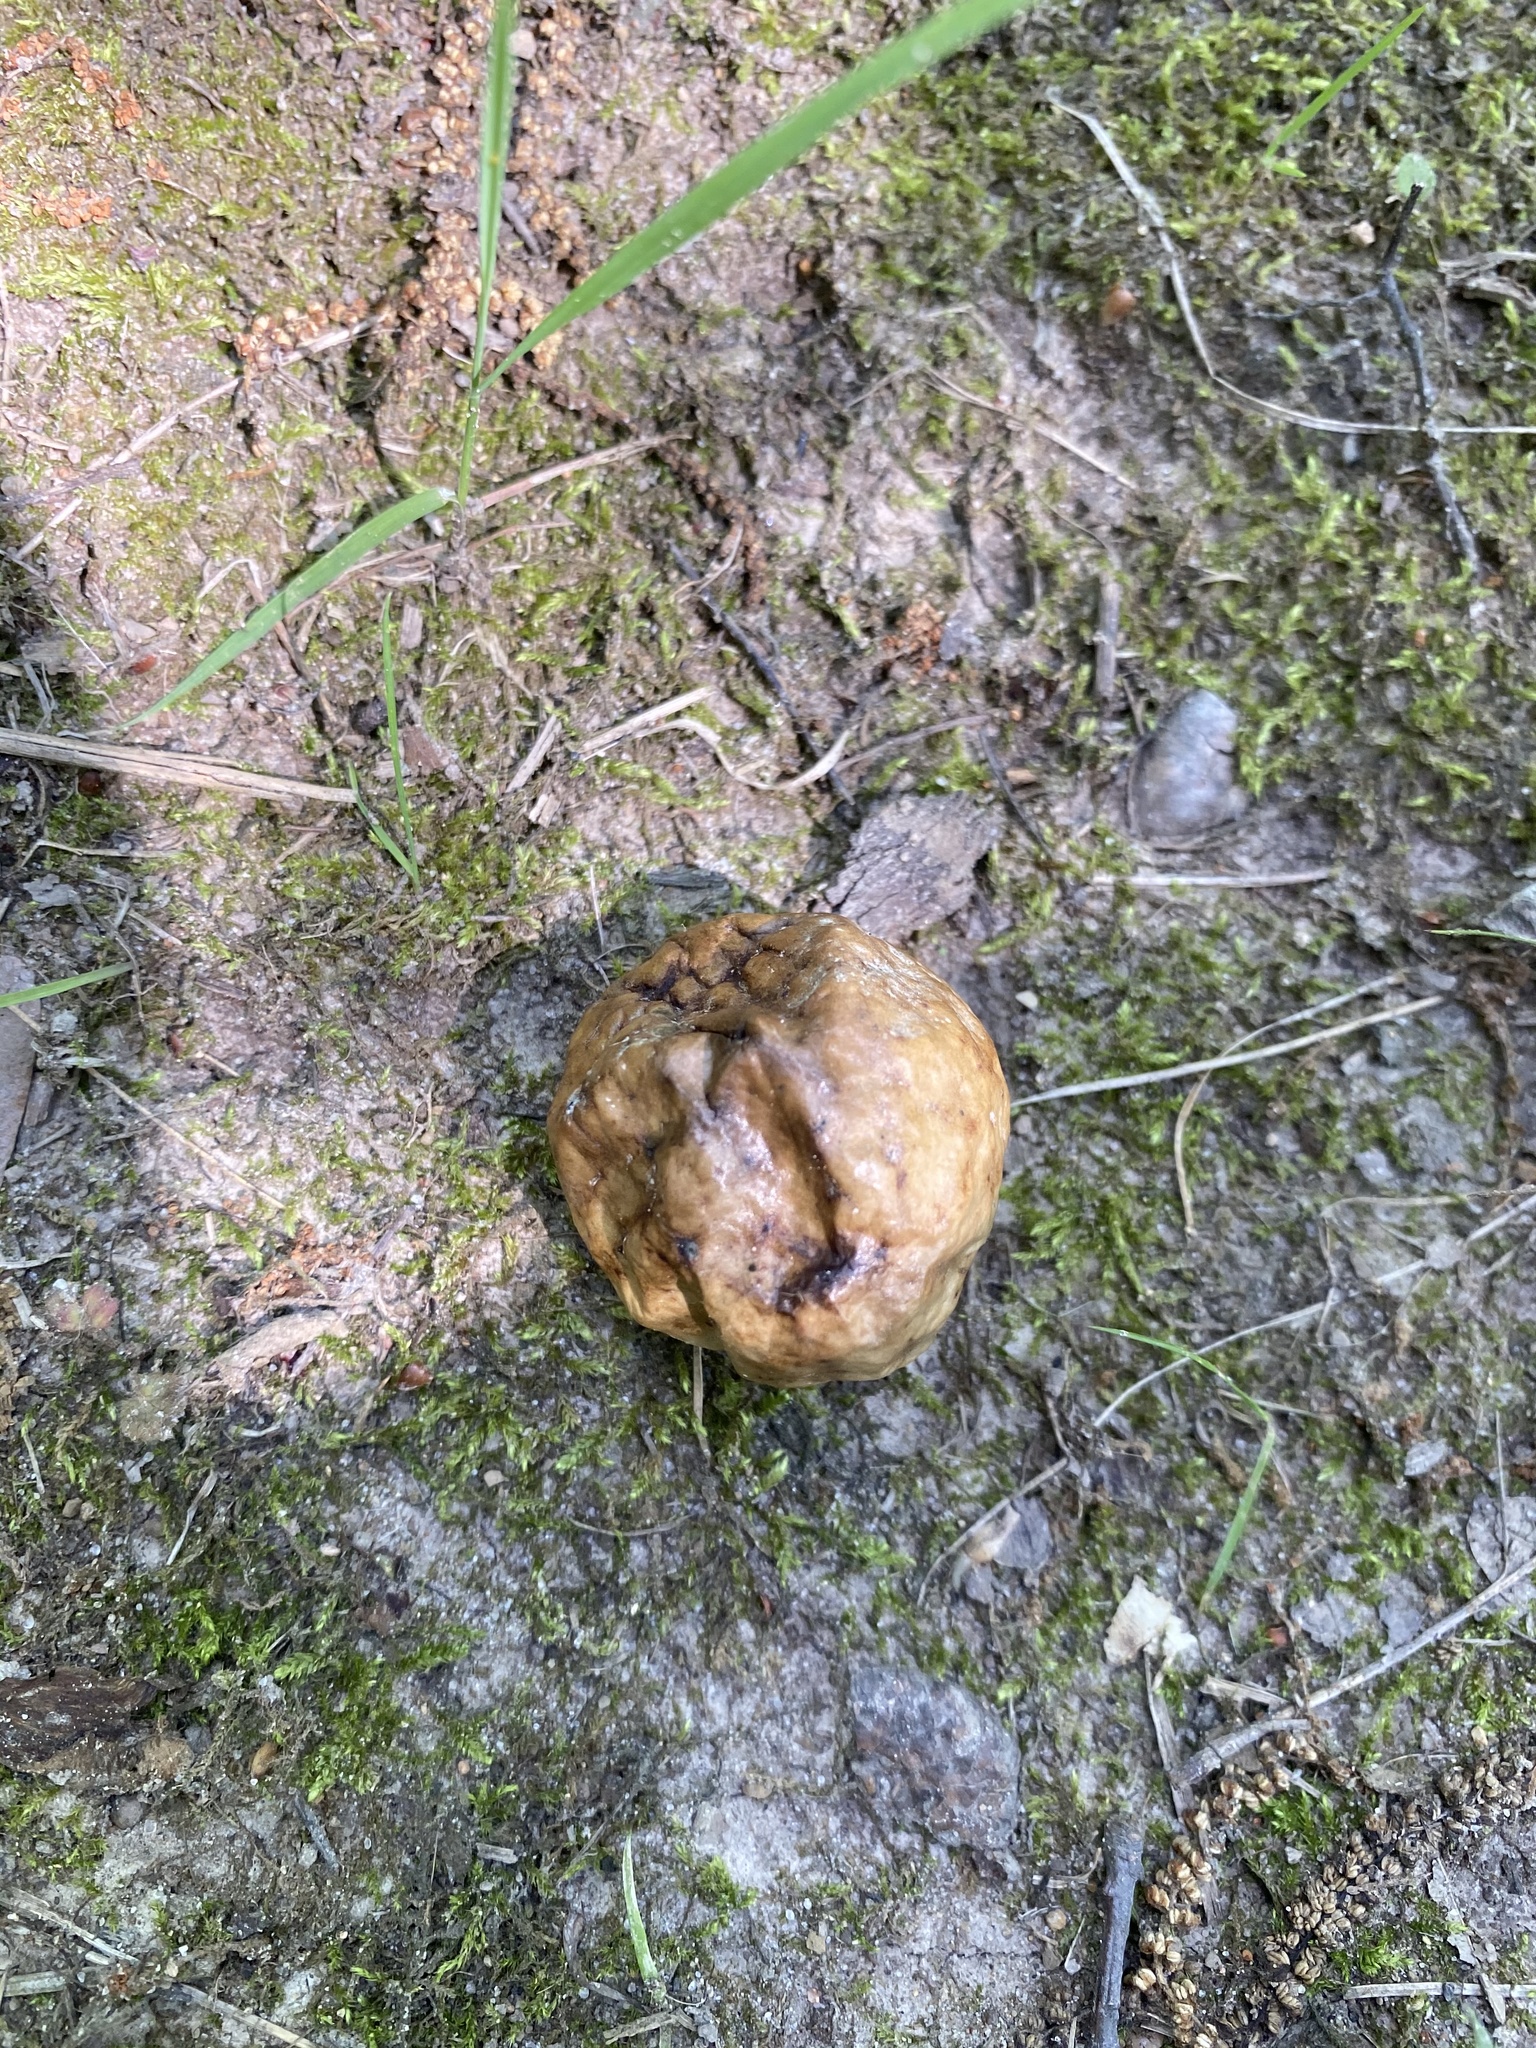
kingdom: Animalia
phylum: Arthropoda
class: Insecta
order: Hymenoptera
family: Cynipidae
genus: Amphibolips
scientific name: Amphibolips
